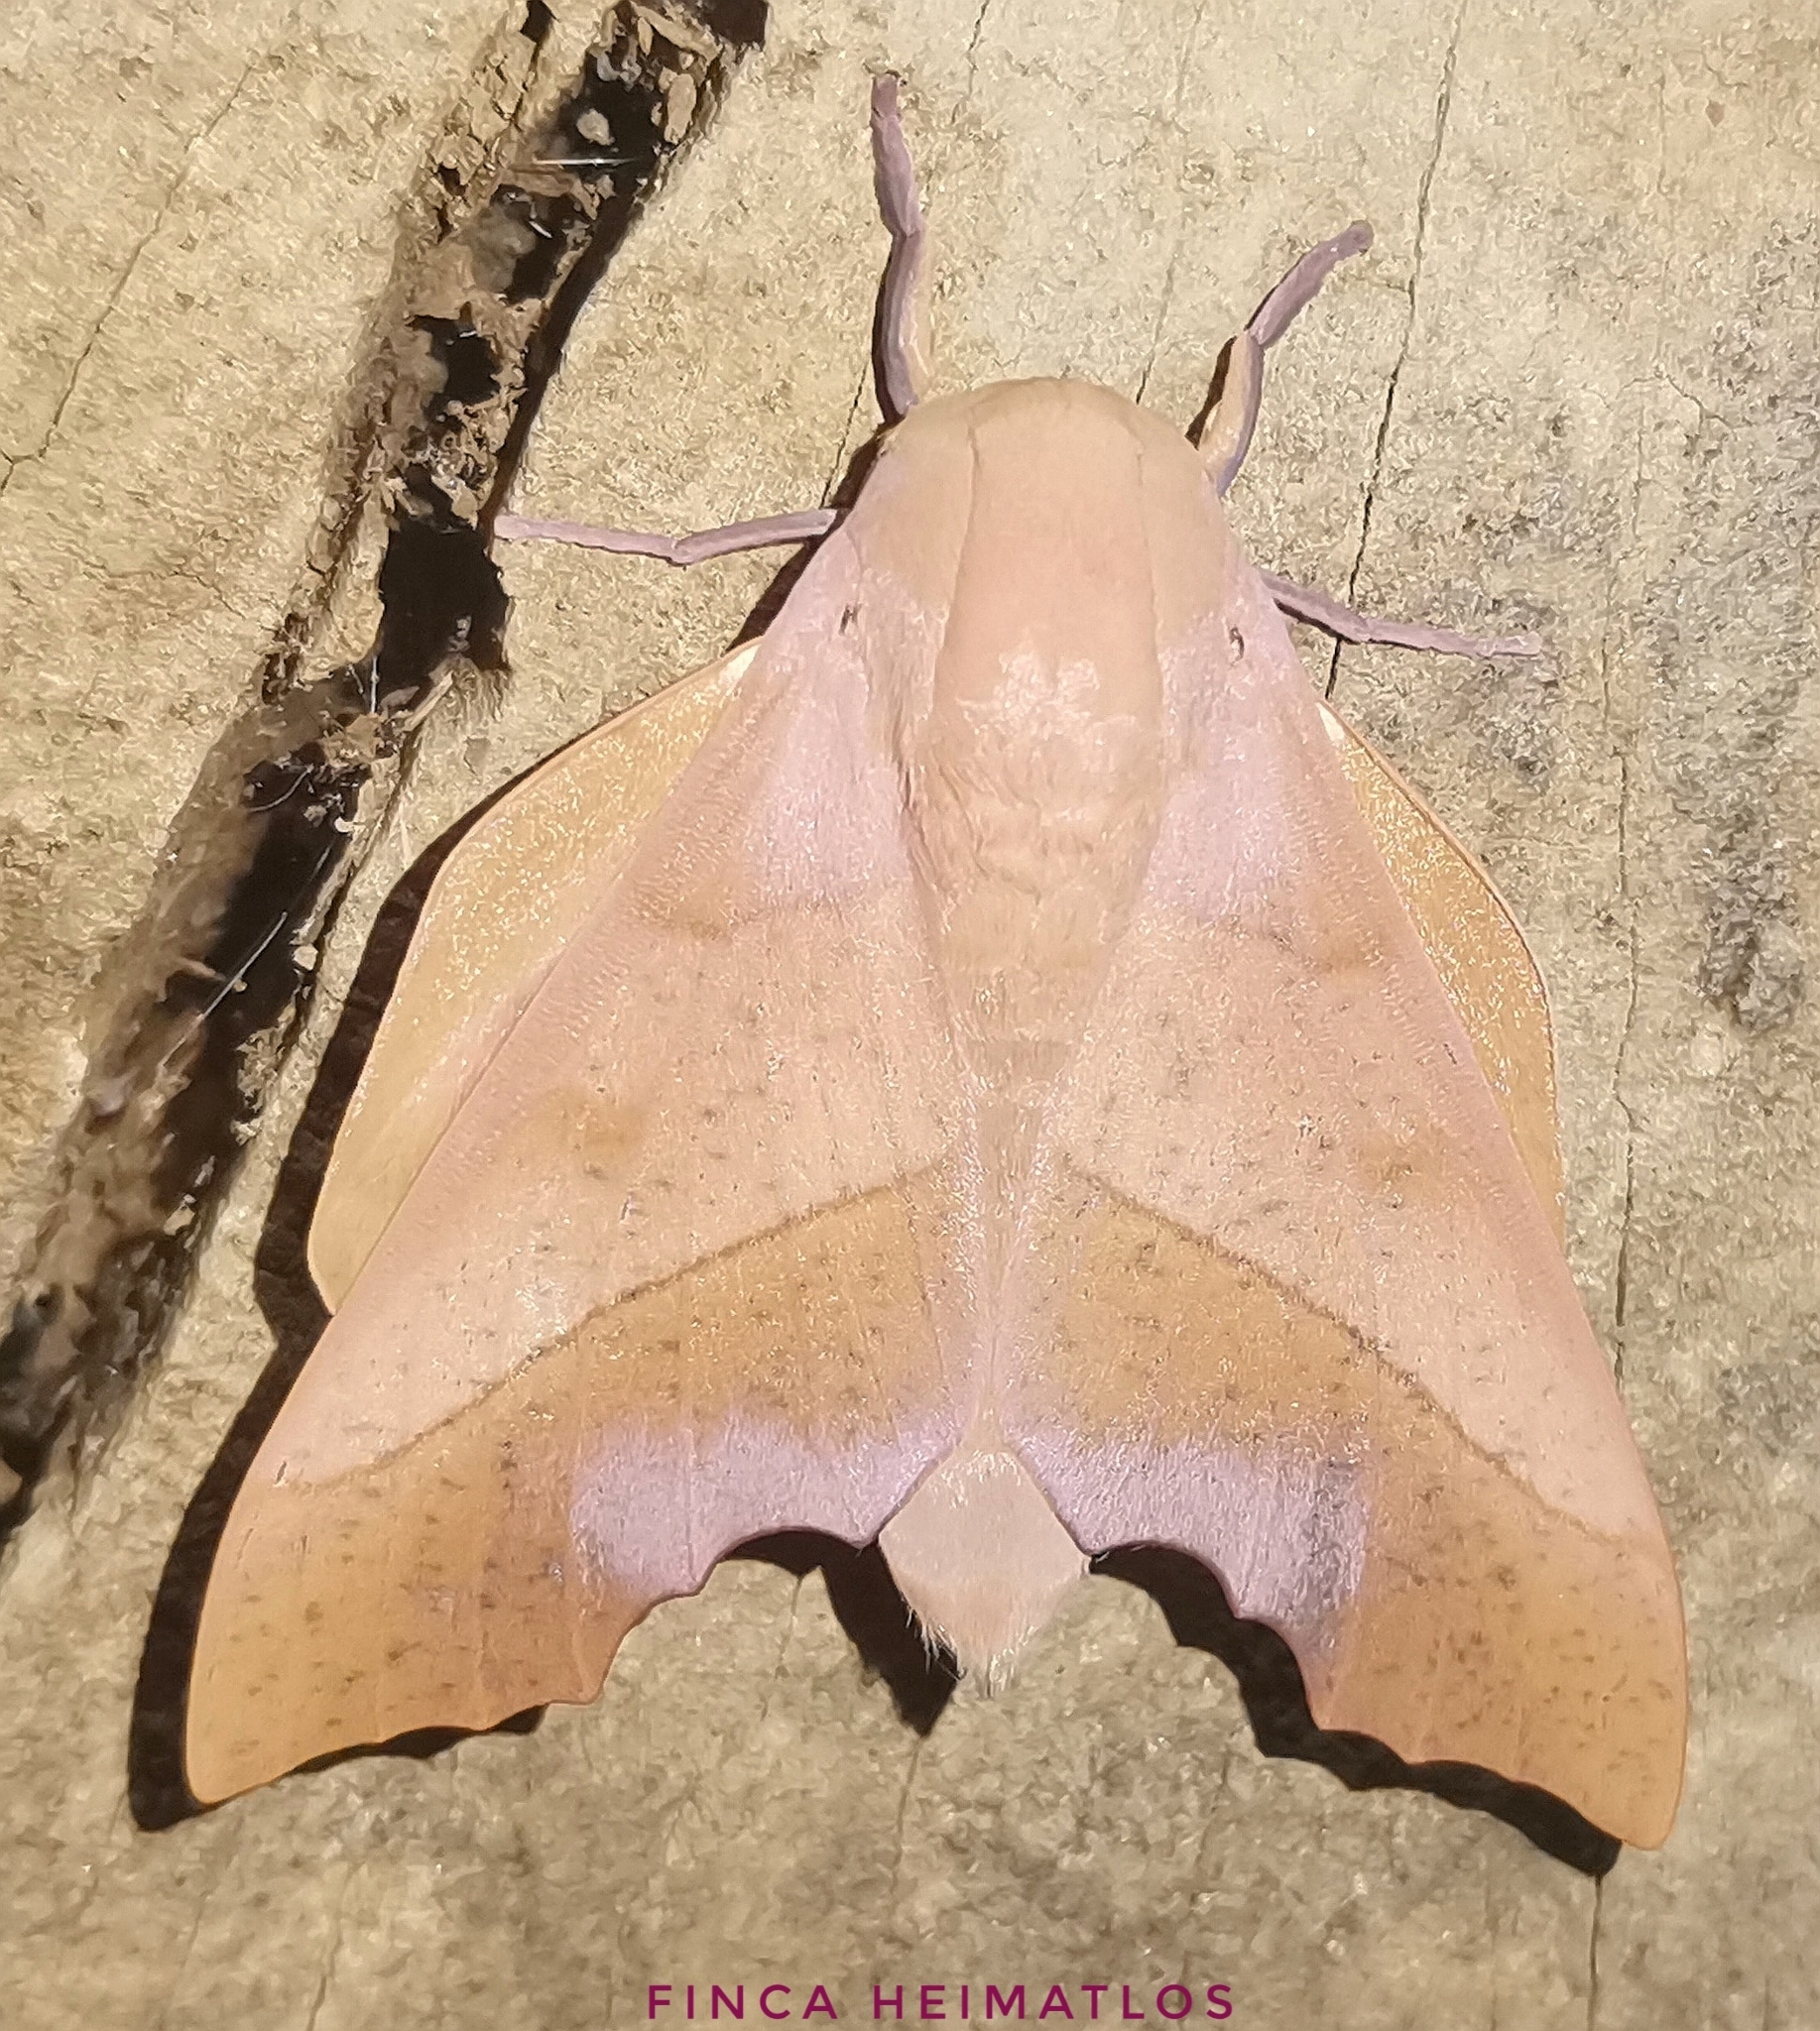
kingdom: Animalia
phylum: Arthropoda
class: Insecta
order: Lepidoptera
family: Saturniidae
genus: Syssphinx
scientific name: Syssphinx molina
